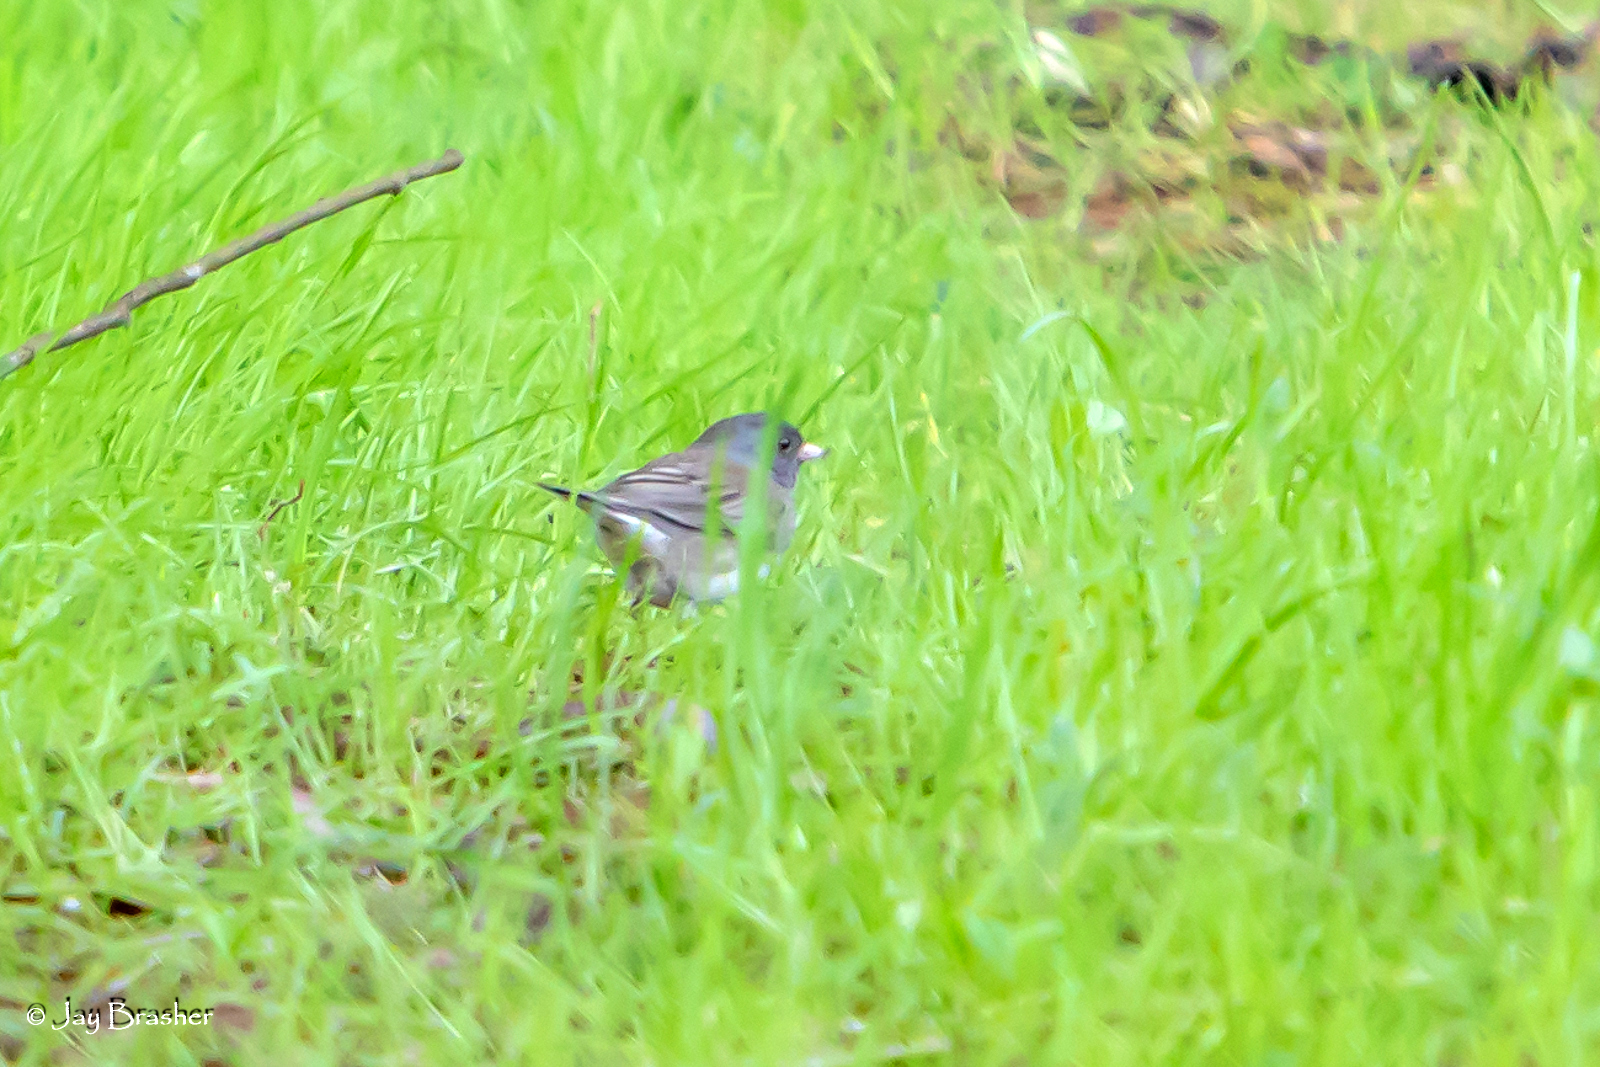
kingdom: Animalia
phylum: Chordata
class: Aves
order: Passeriformes
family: Passerellidae
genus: Junco
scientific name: Junco hyemalis
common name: Dark-eyed junco
